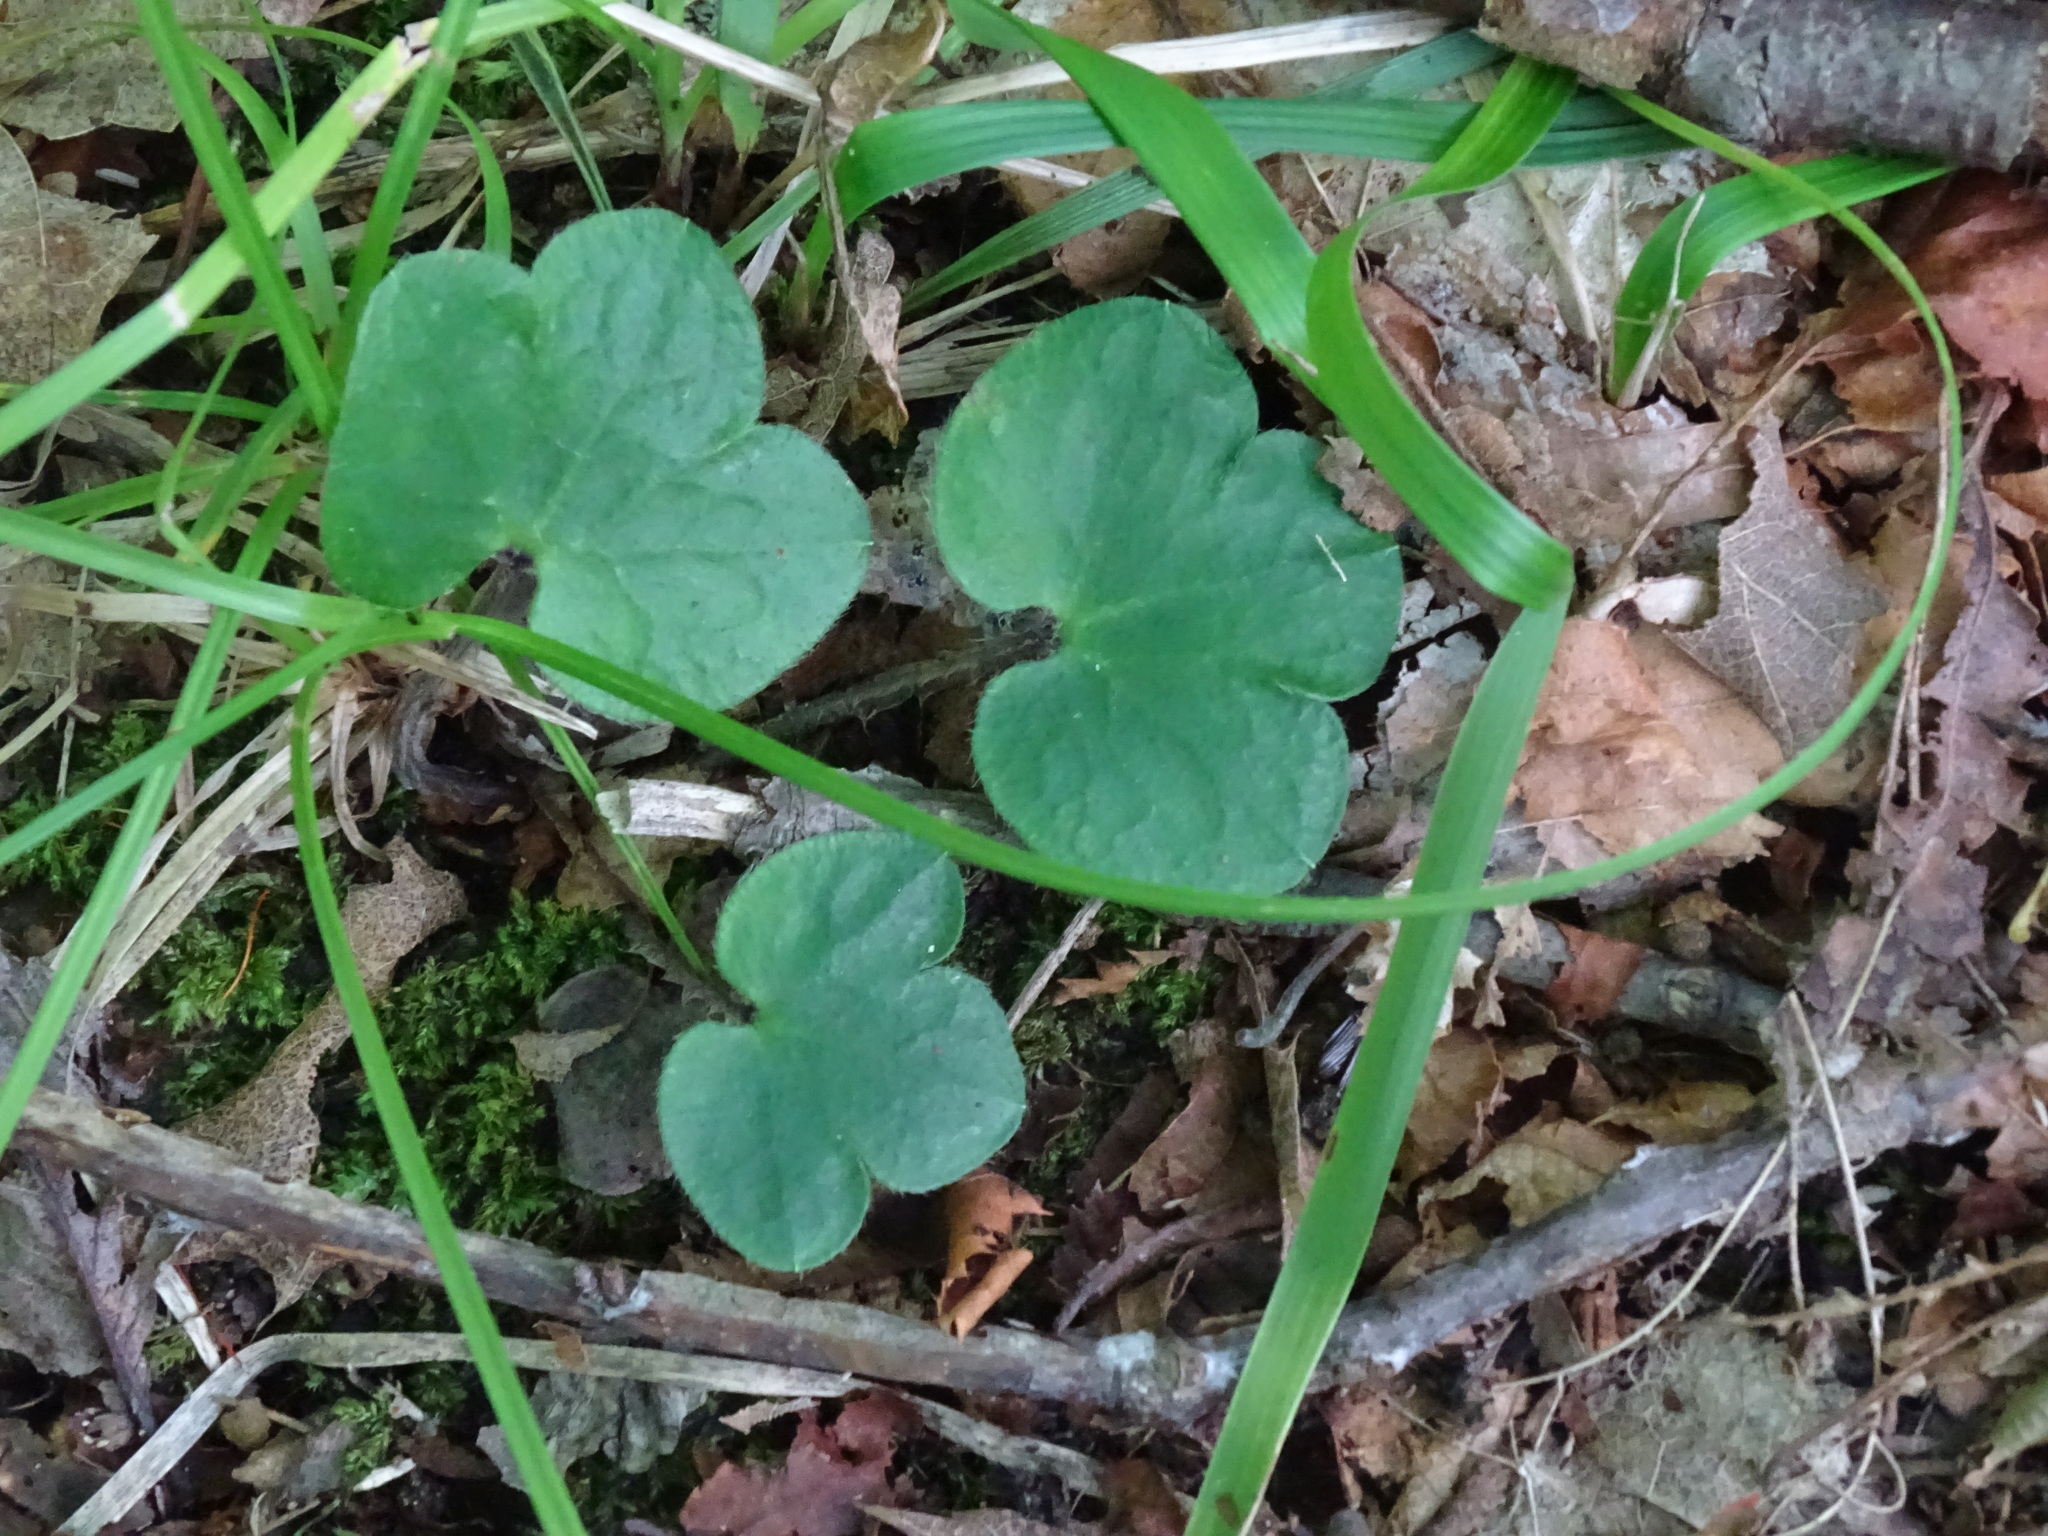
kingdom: Plantae
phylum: Tracheophyta
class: Magnoliopsida
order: Ranunculales
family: Ranunculaceae
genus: Hepatica
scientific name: Hepatica americana
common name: American hepatica
